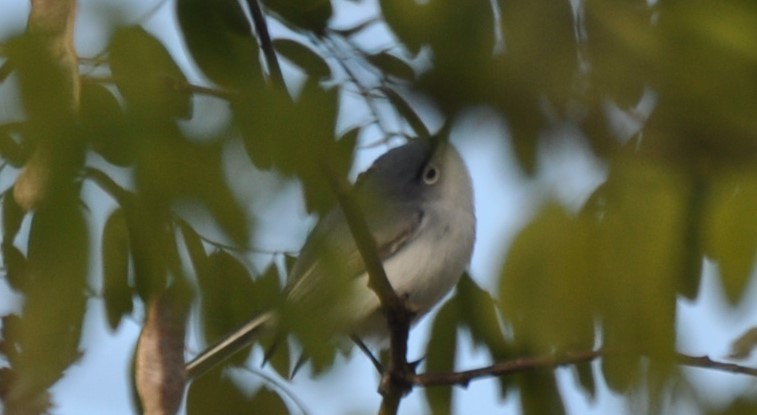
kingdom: Animalia
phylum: Chordata
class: Aves
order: Passeriformes
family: Polioptilidae
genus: Polioptila
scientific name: Polioptila caerulea
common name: Blue-gray gnatcatcher
